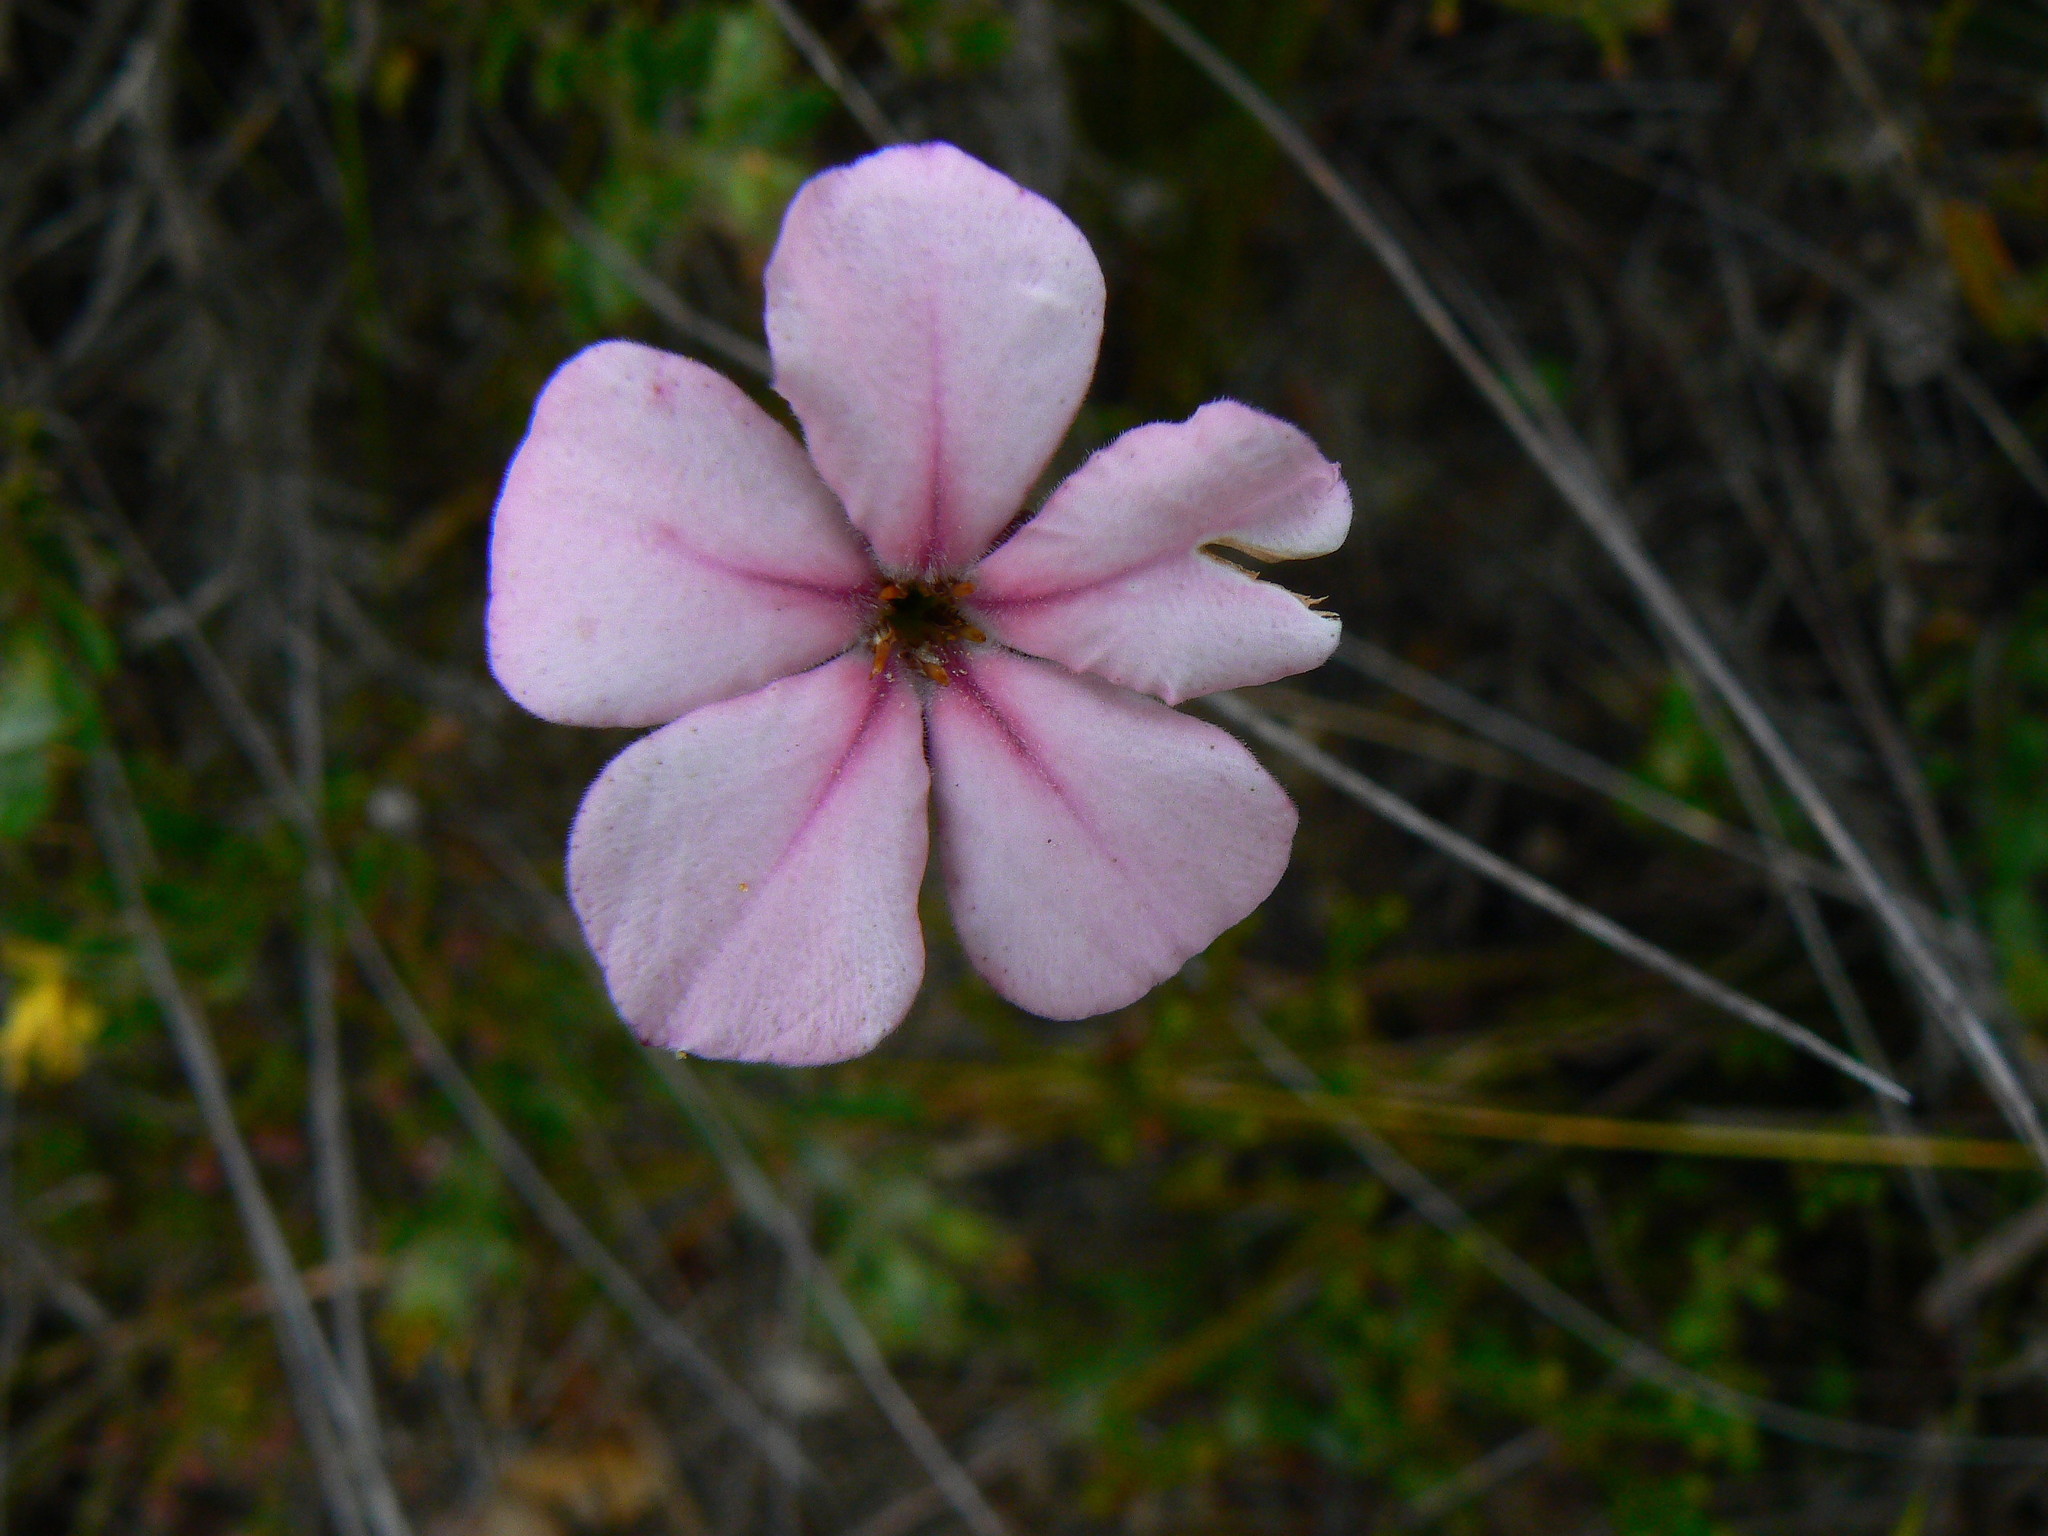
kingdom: Plantae
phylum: Tracheophyta
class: Magnoliopsida
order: Sapindales
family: Rutaceae
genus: Acmadenia
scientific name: Acmadenia tetragona
